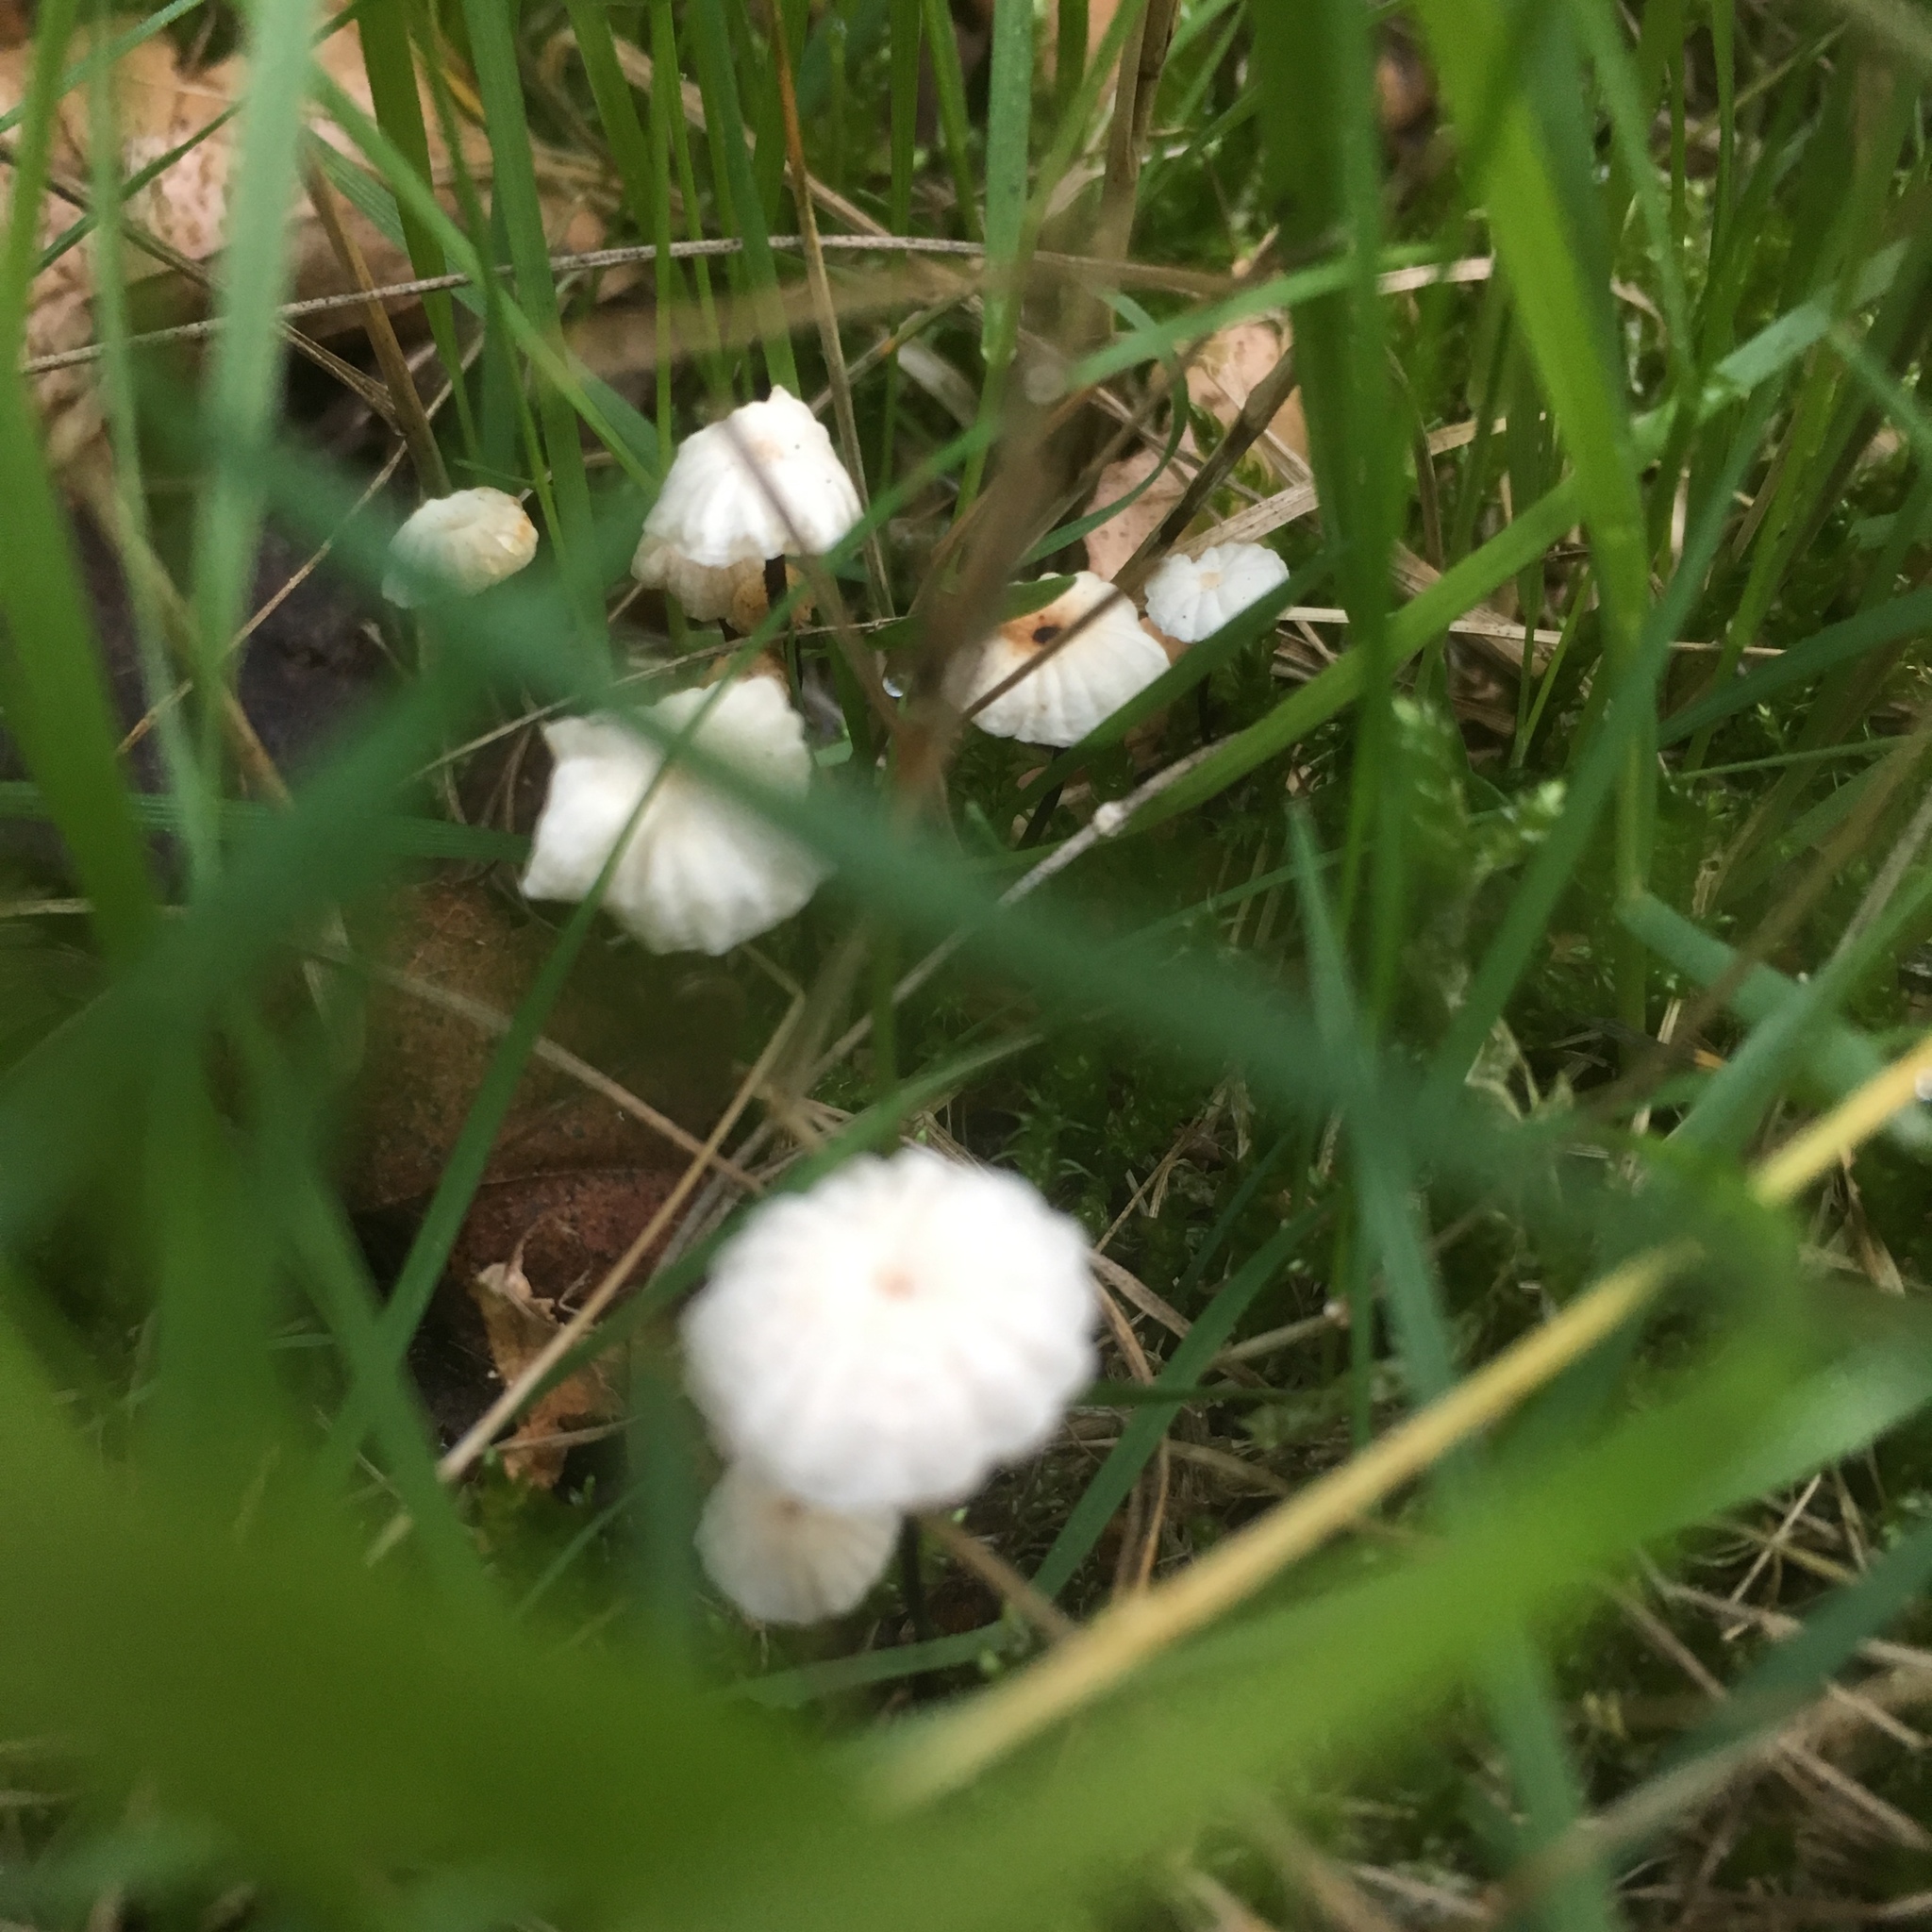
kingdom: Fungi
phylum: Basidiomycota
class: Agaricomycetes
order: Agaricales
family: Marasmiaceae
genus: Marasmius
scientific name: Marasmius rotula
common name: Collared parachute
